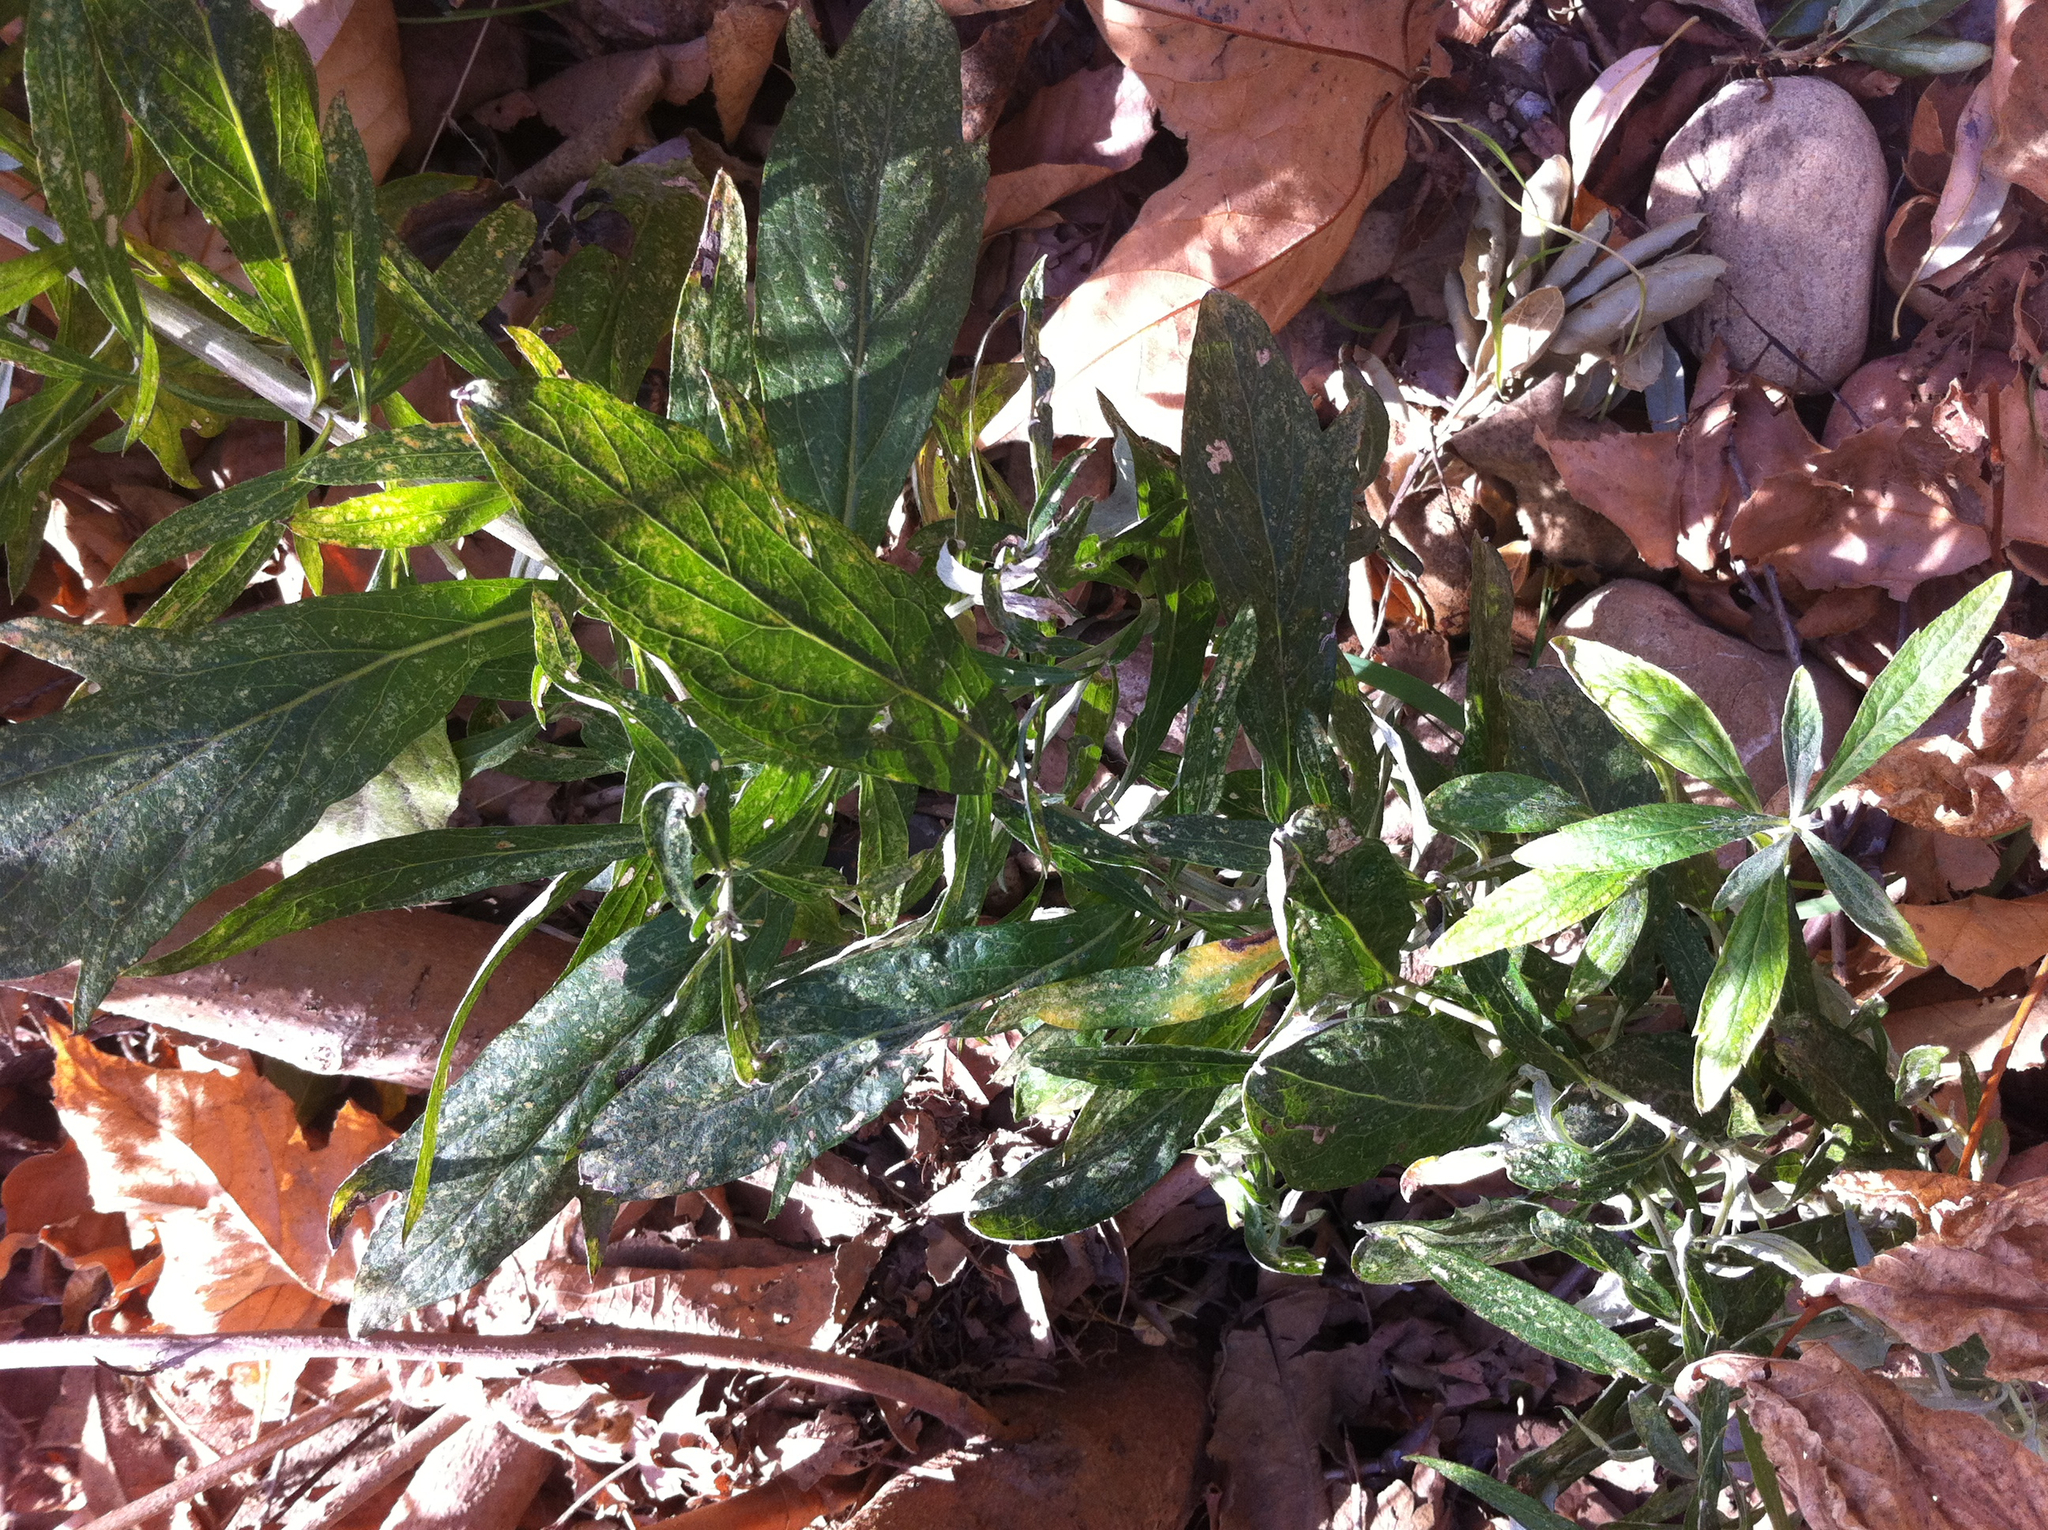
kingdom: Plantae
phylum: Tracheophyta
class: Magnoliopsida
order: Asterales
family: Asteraceae
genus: Artemisia
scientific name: Artemisia douglasiana
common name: Northwest mugwort
